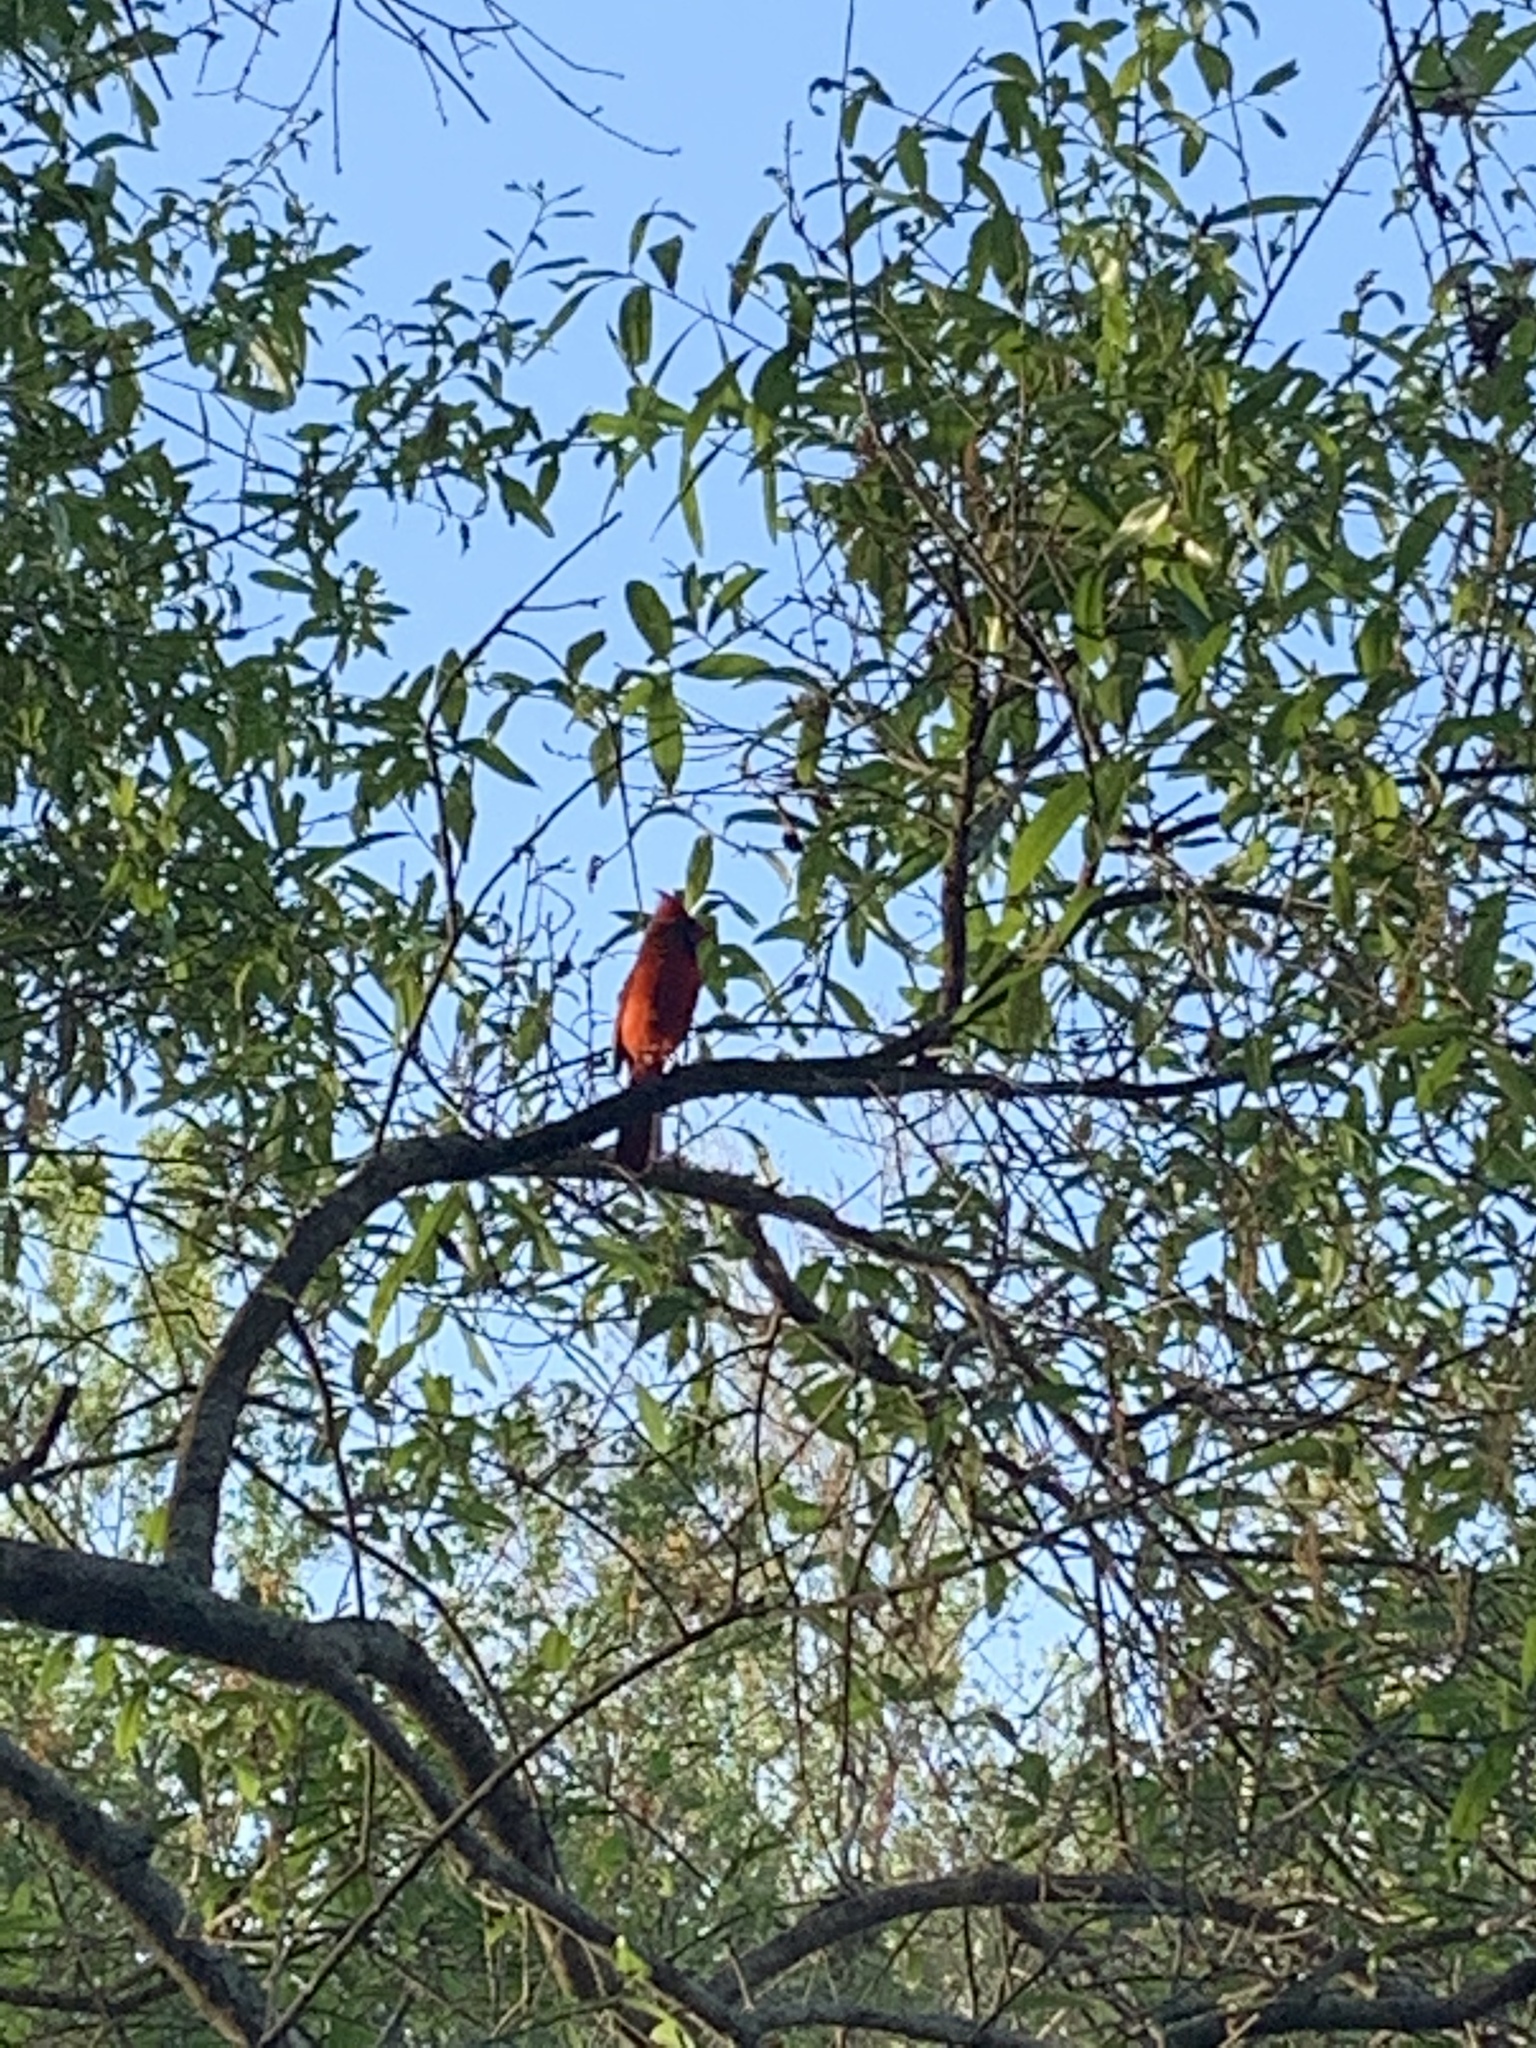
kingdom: Animalia
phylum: Chordata
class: Aves
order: Passeriformes
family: Cardinalidae
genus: Cardinalis
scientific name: Cardinalis cardinalis
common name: Northern cardinal
